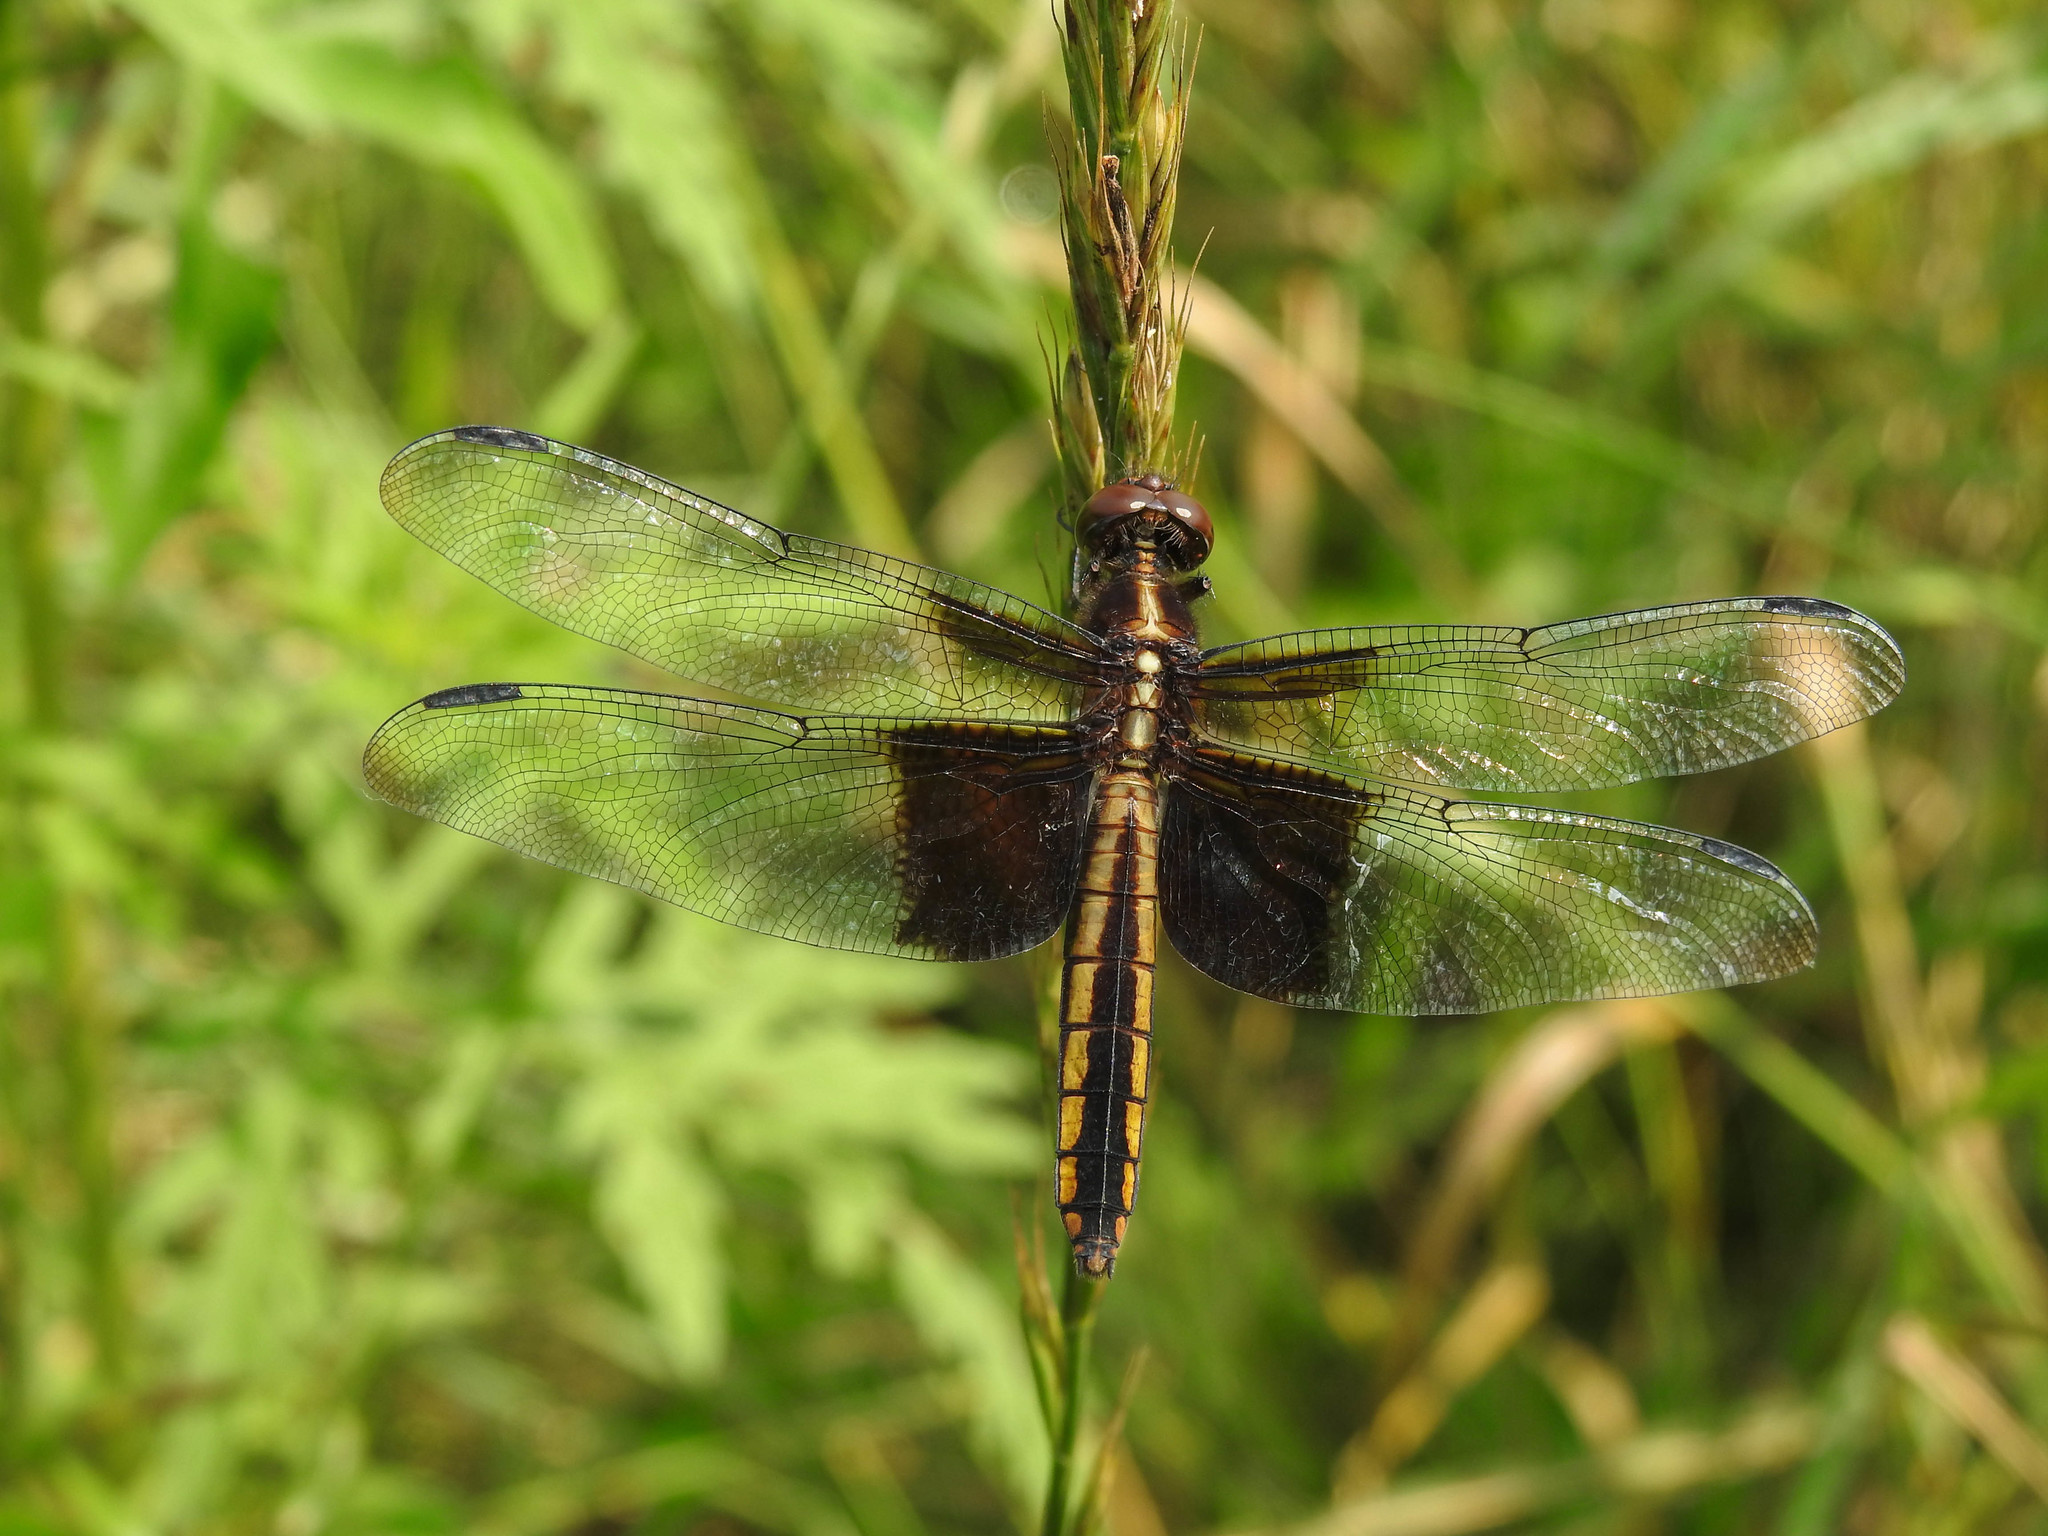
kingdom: Animalia
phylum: Arthropoda
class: Insecta
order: Odonata
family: Libellulidae
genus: Libellula
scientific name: Libellula luctuosa
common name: Widow skimmer
